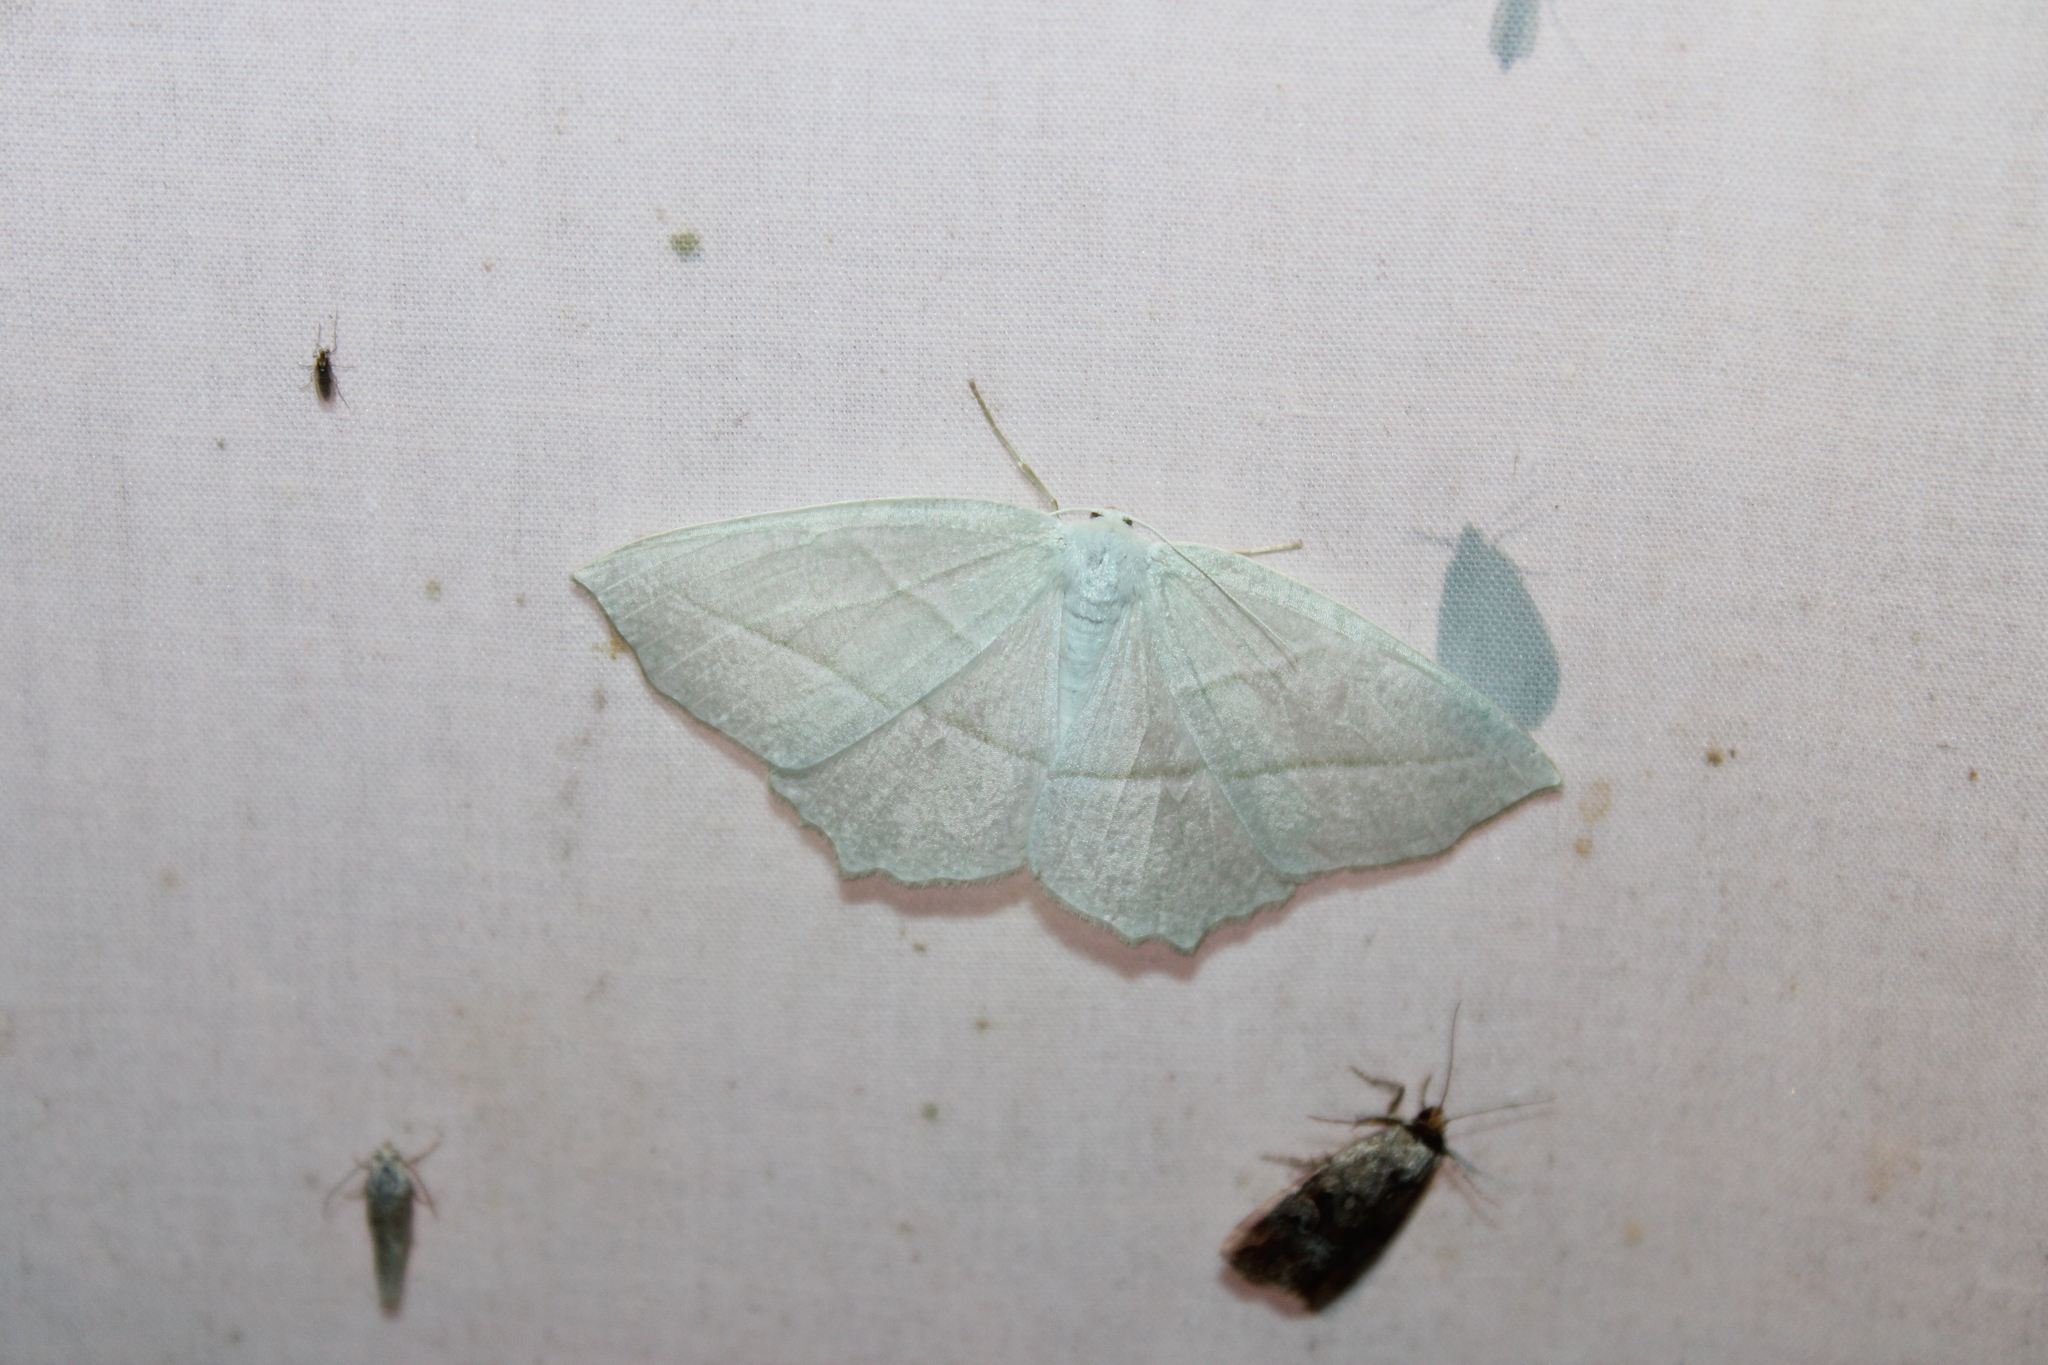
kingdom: Animalia
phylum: Arthropoda
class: Insecta
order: Lepidoptera
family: Geometridae
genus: Campaea
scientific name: Campaea perlata
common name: Fringed looper
